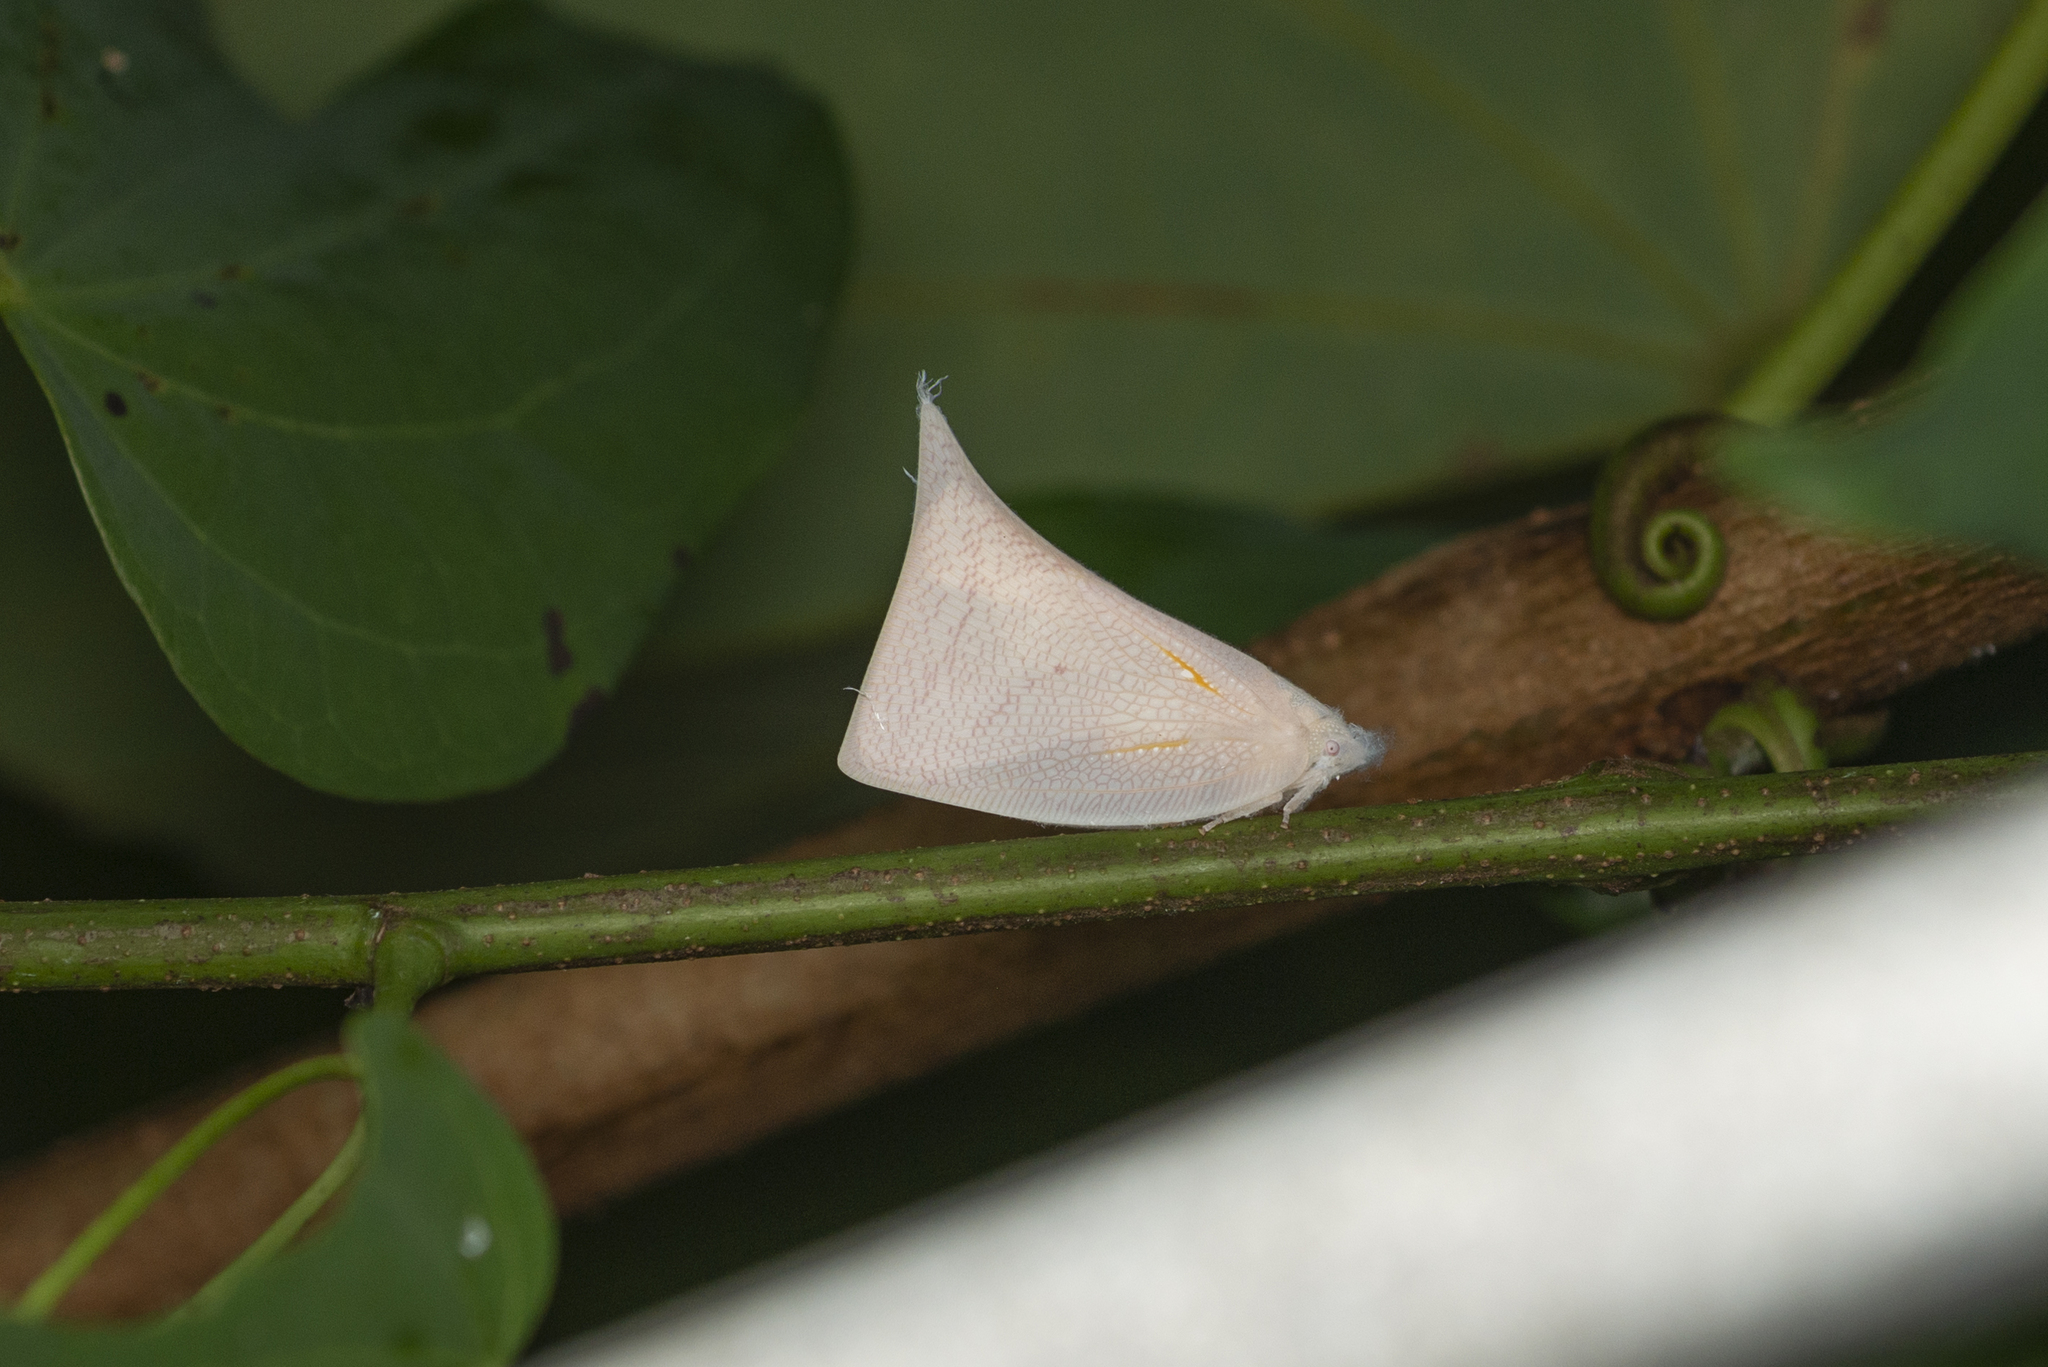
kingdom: Animalia
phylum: Arthropoda
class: Insecta
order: Hemiptera
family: Flatidae
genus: Lawana
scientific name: Lawana imitata
